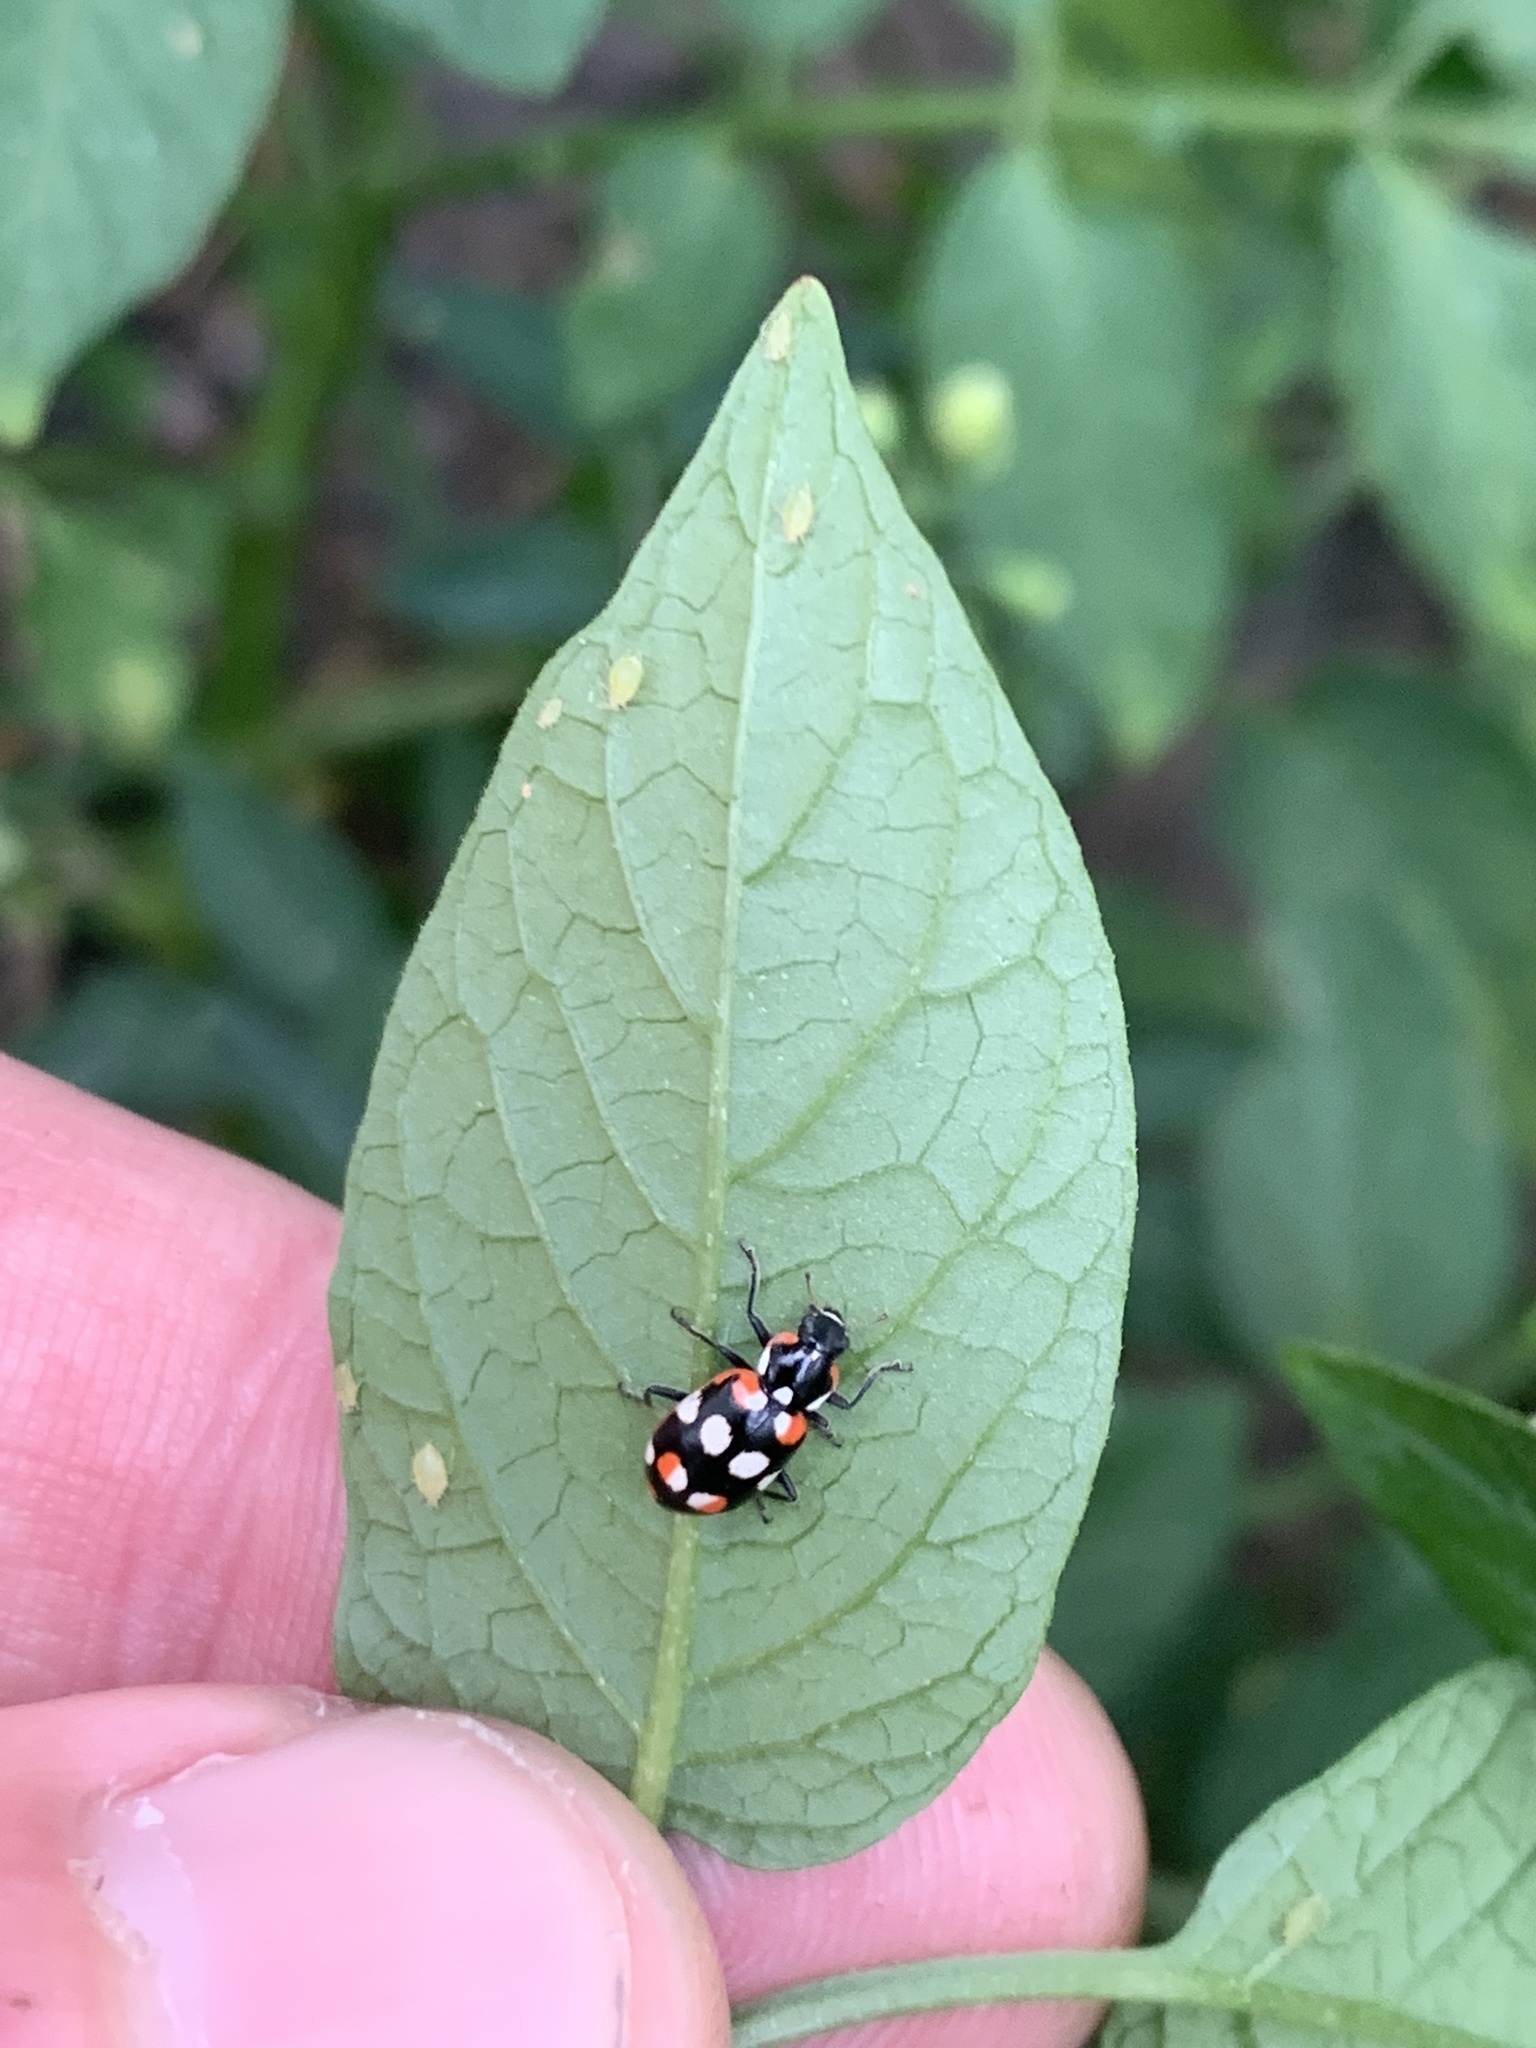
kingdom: Animalia
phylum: Arthropoda
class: Insecta
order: Coleoptera
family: Coccinellidae
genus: Eriopis
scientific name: Eriopis connexa
